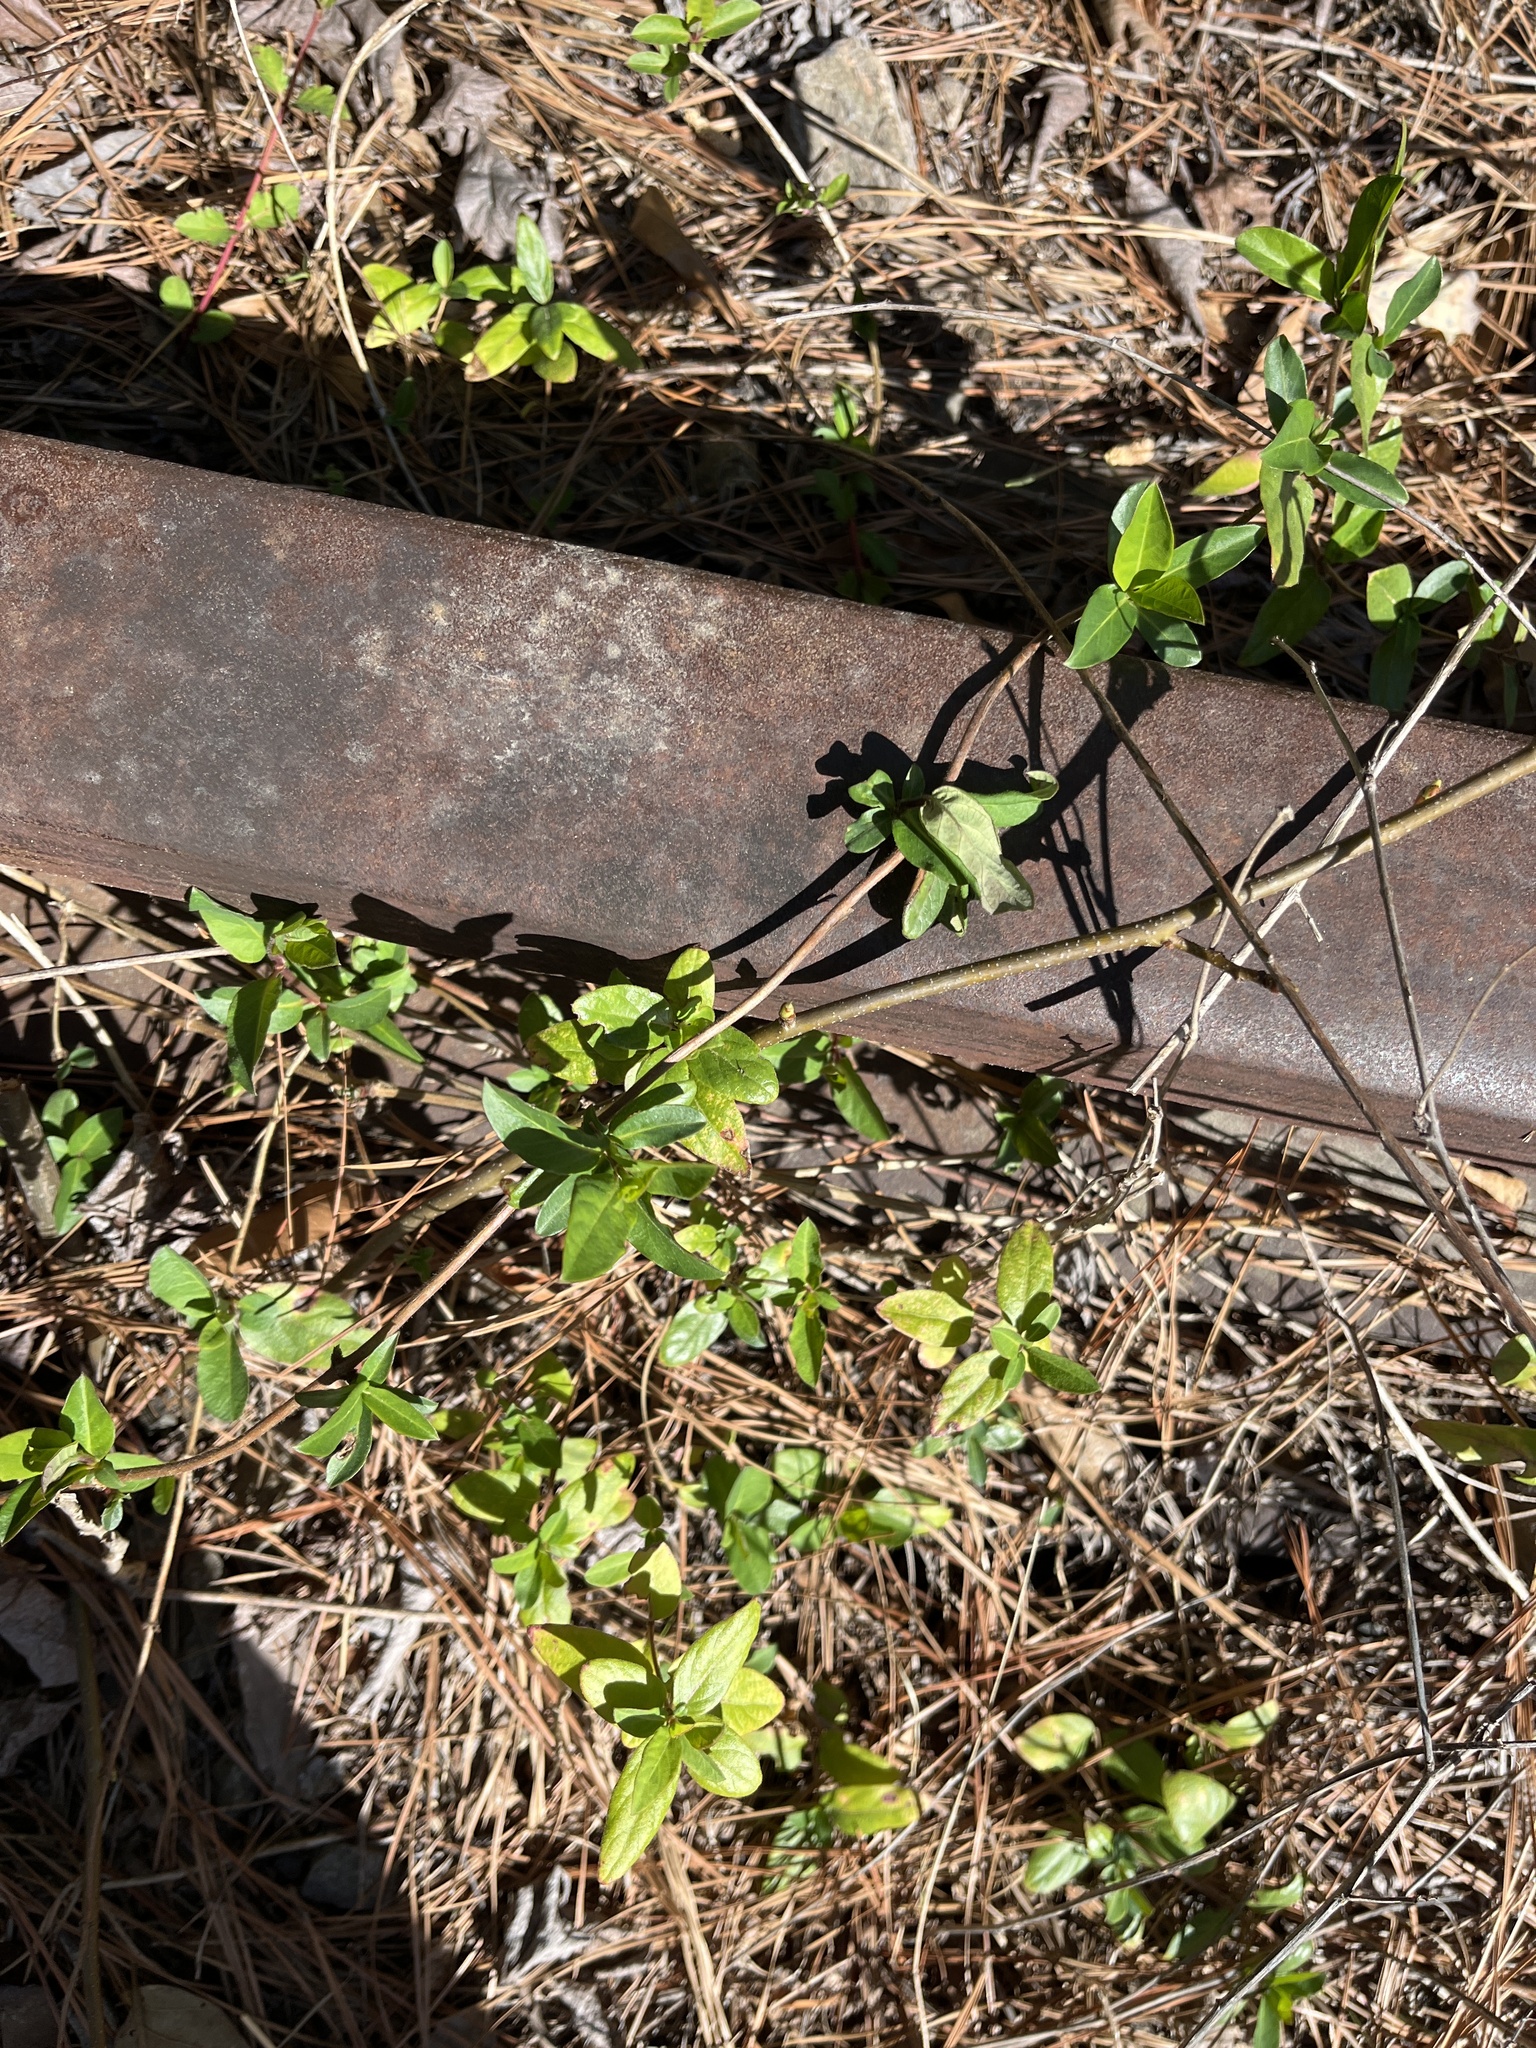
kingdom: Plantae
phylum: Tracheophyta
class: Magnoliopsida
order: Dipsacales
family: Caprifoliaceae
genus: Lonicera
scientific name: Lonicera japonica
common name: Japanese honeysuckle
